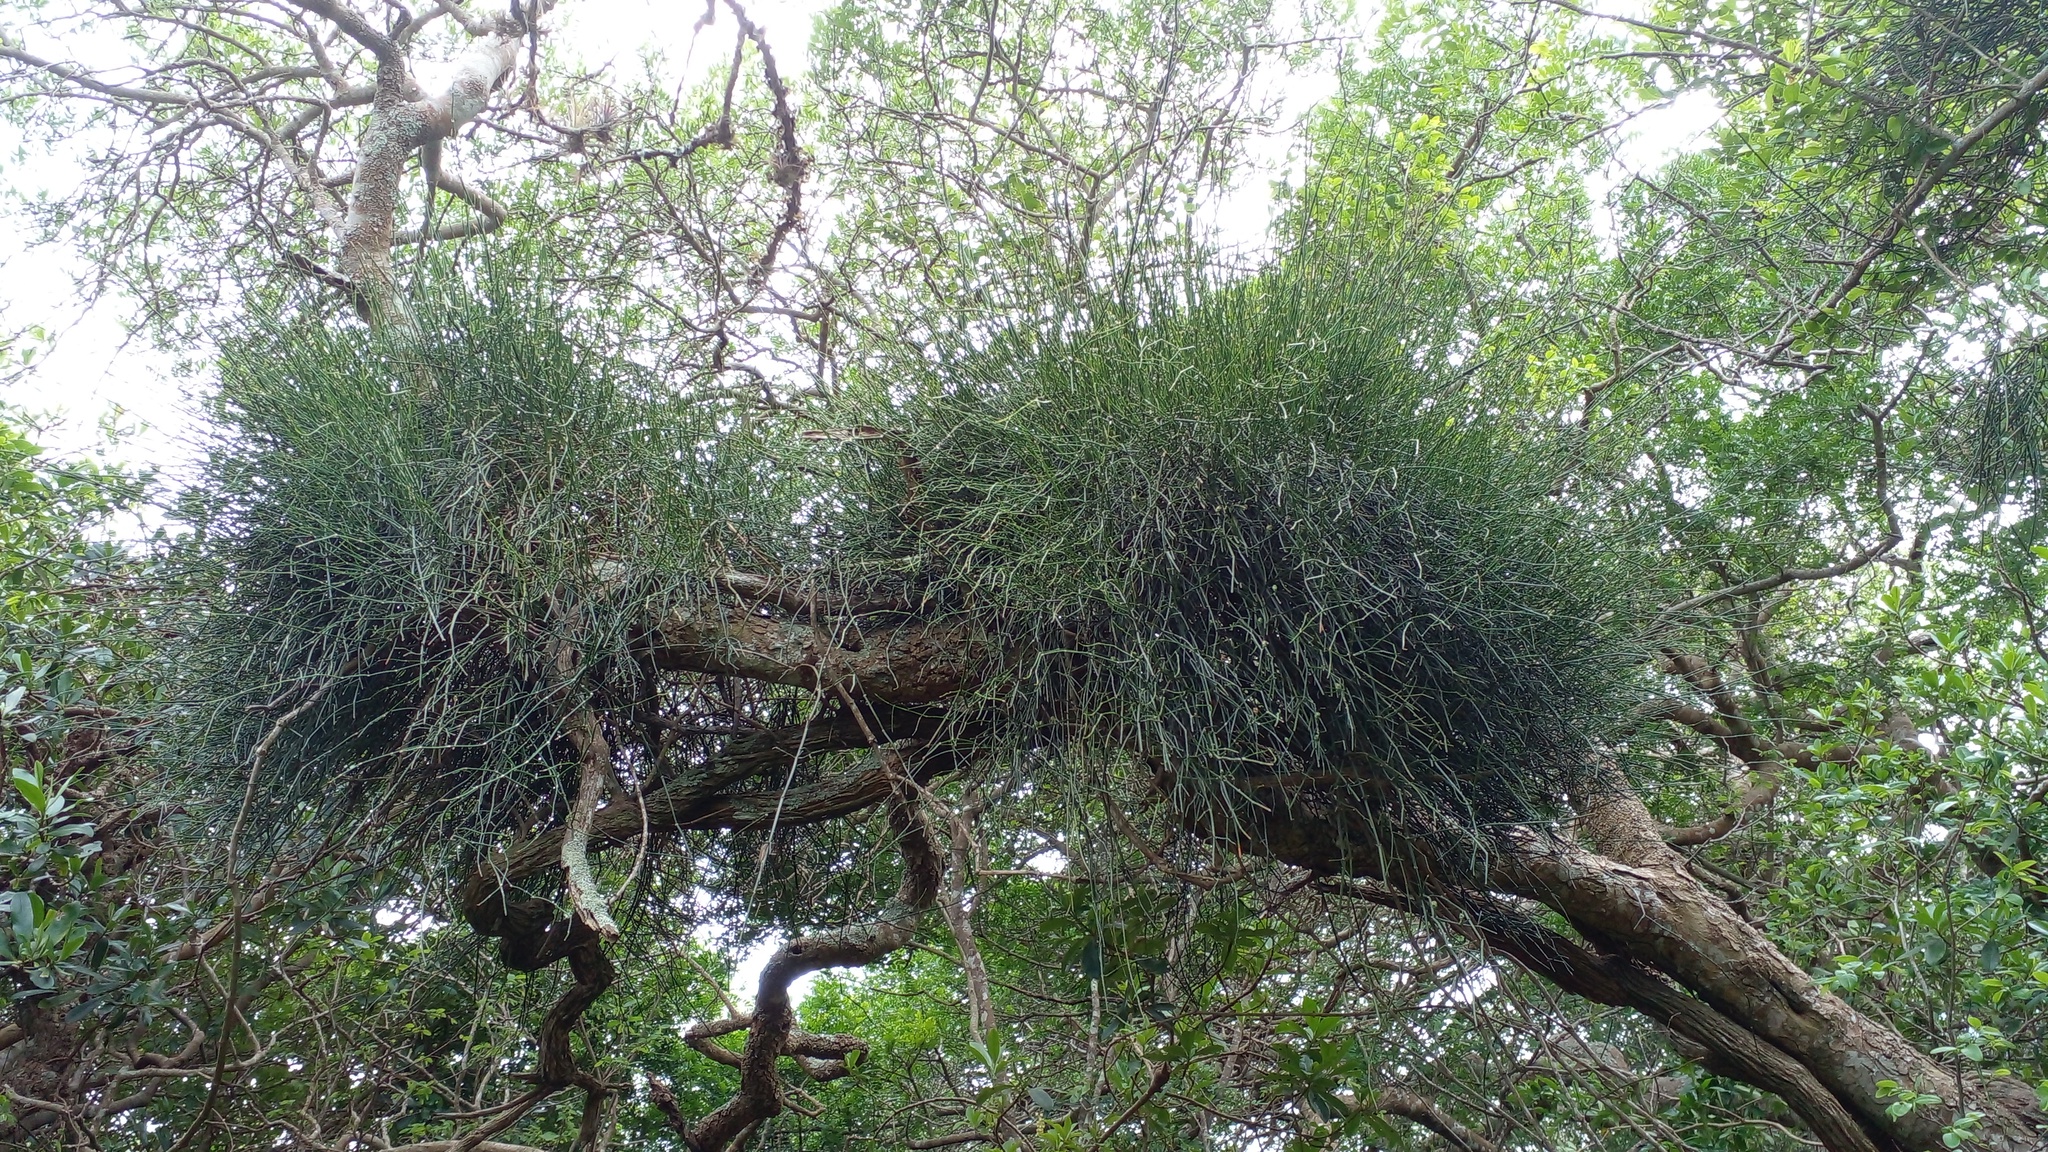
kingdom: Plantae
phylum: Tracheophyta
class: Gnetopsida
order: Ephedrales
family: Ephedraceae
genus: Ephedra
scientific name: Ephedra tweedieana
